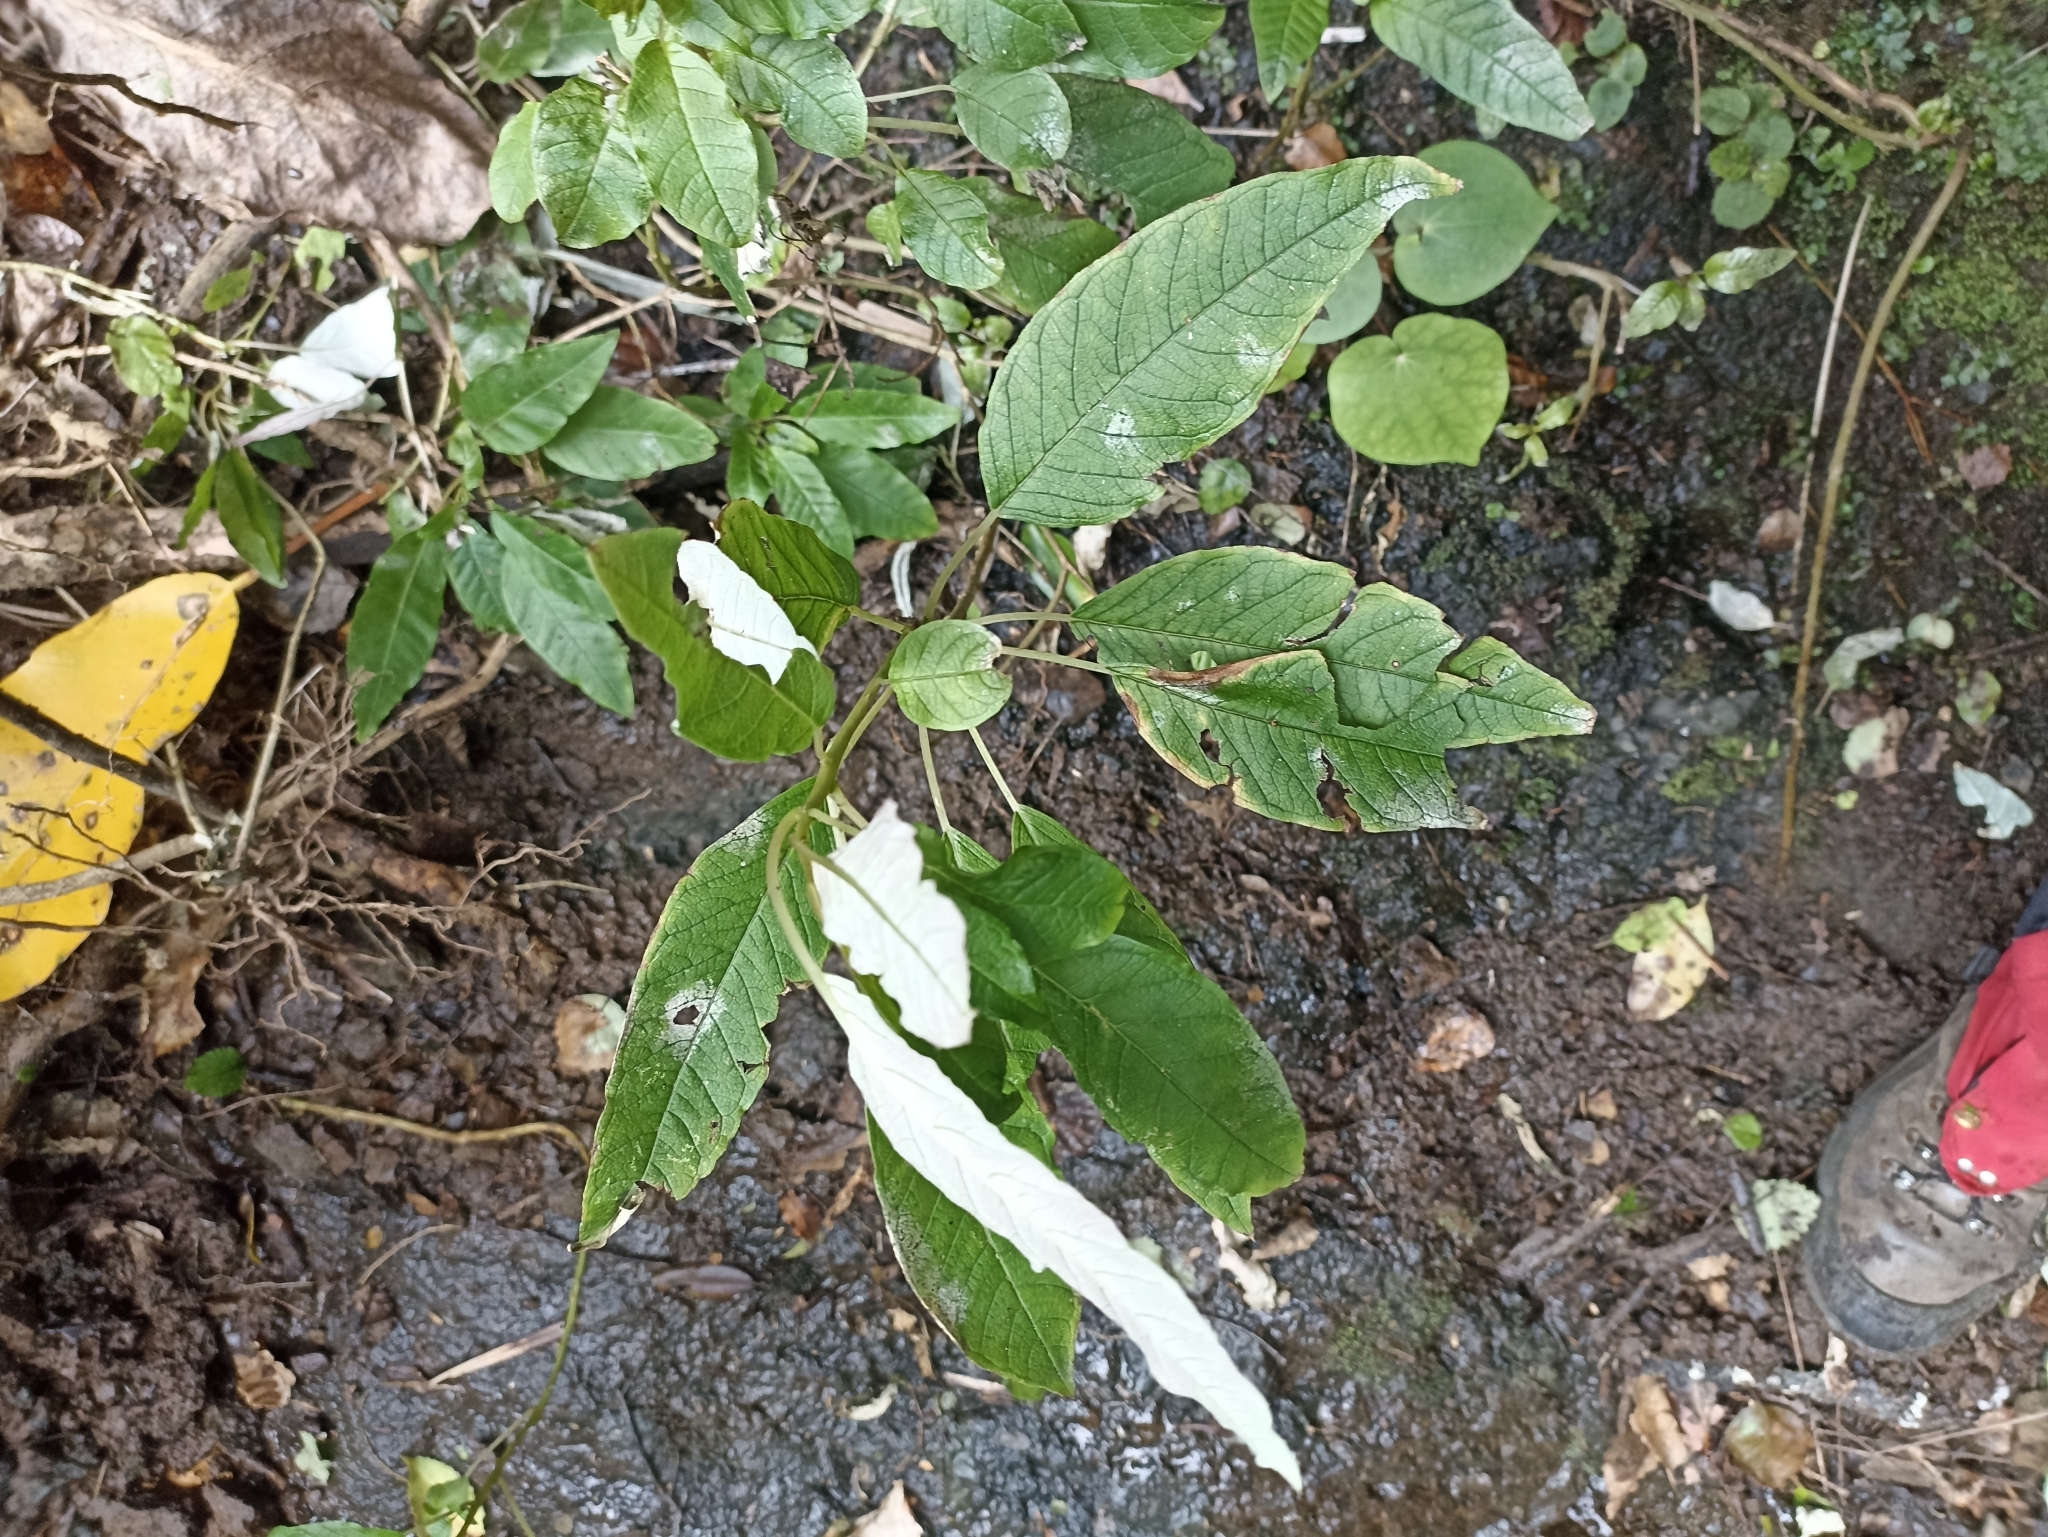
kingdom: Plantae
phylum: Tracheophyta
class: Magnoliopsida
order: Myrtales
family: Onagraceae
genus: Fuchsia
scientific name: Fuchsia excorticata
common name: Tree fuchsia
